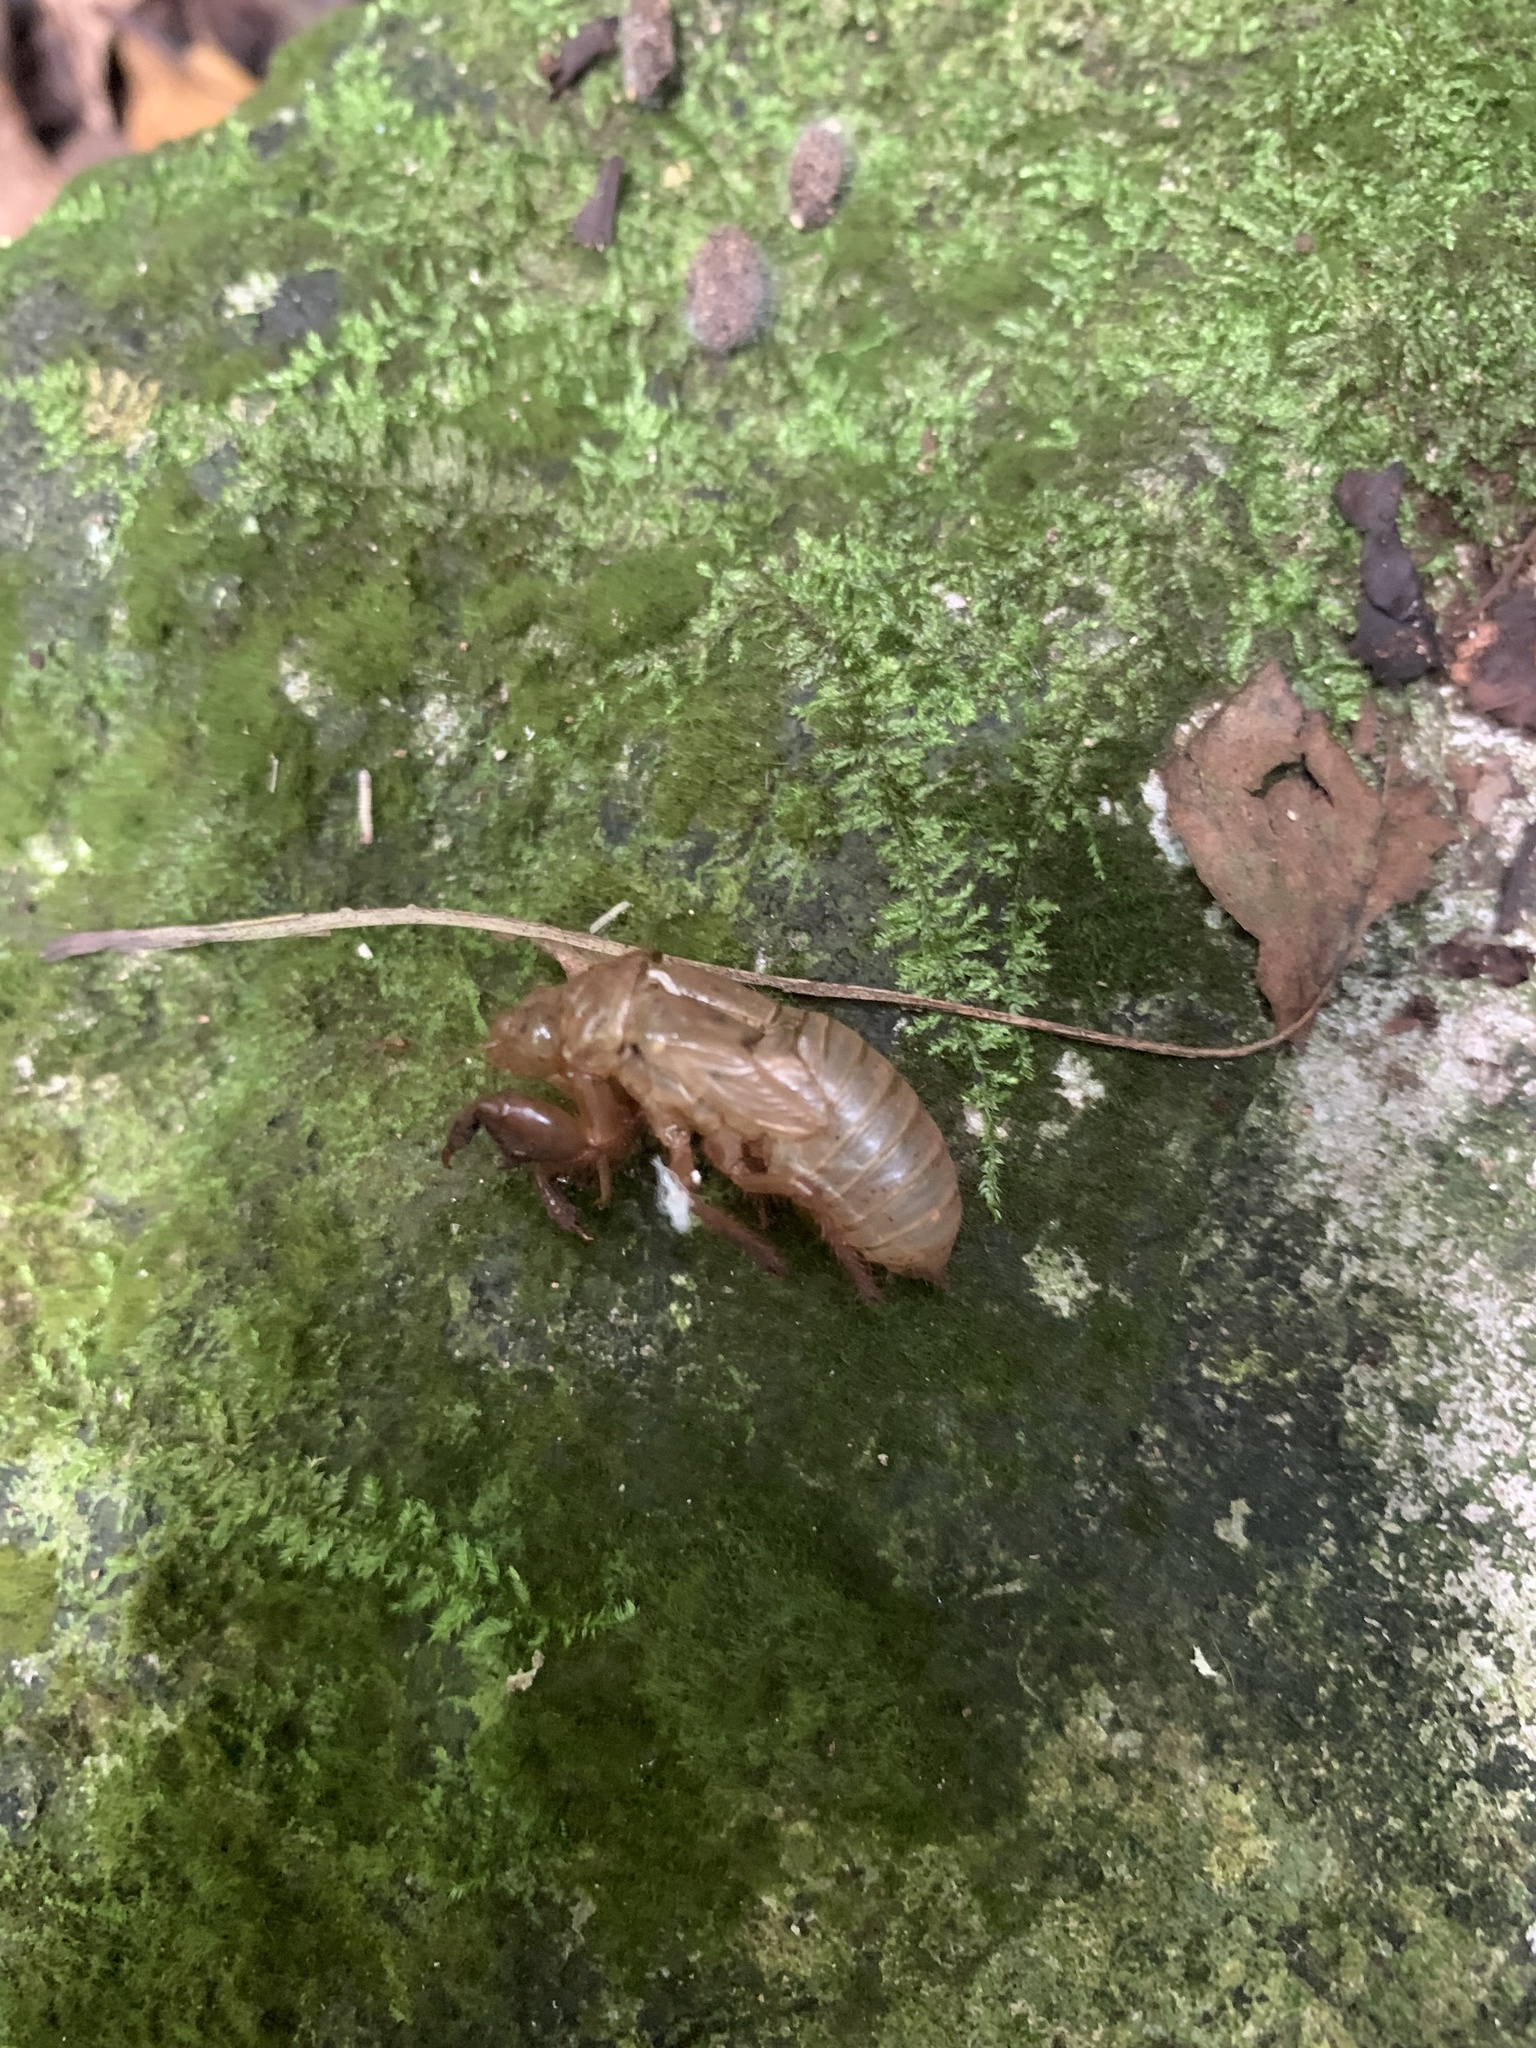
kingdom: Animalia
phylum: Arthropoda
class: Insecta
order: Hemiptera
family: Cicadidae
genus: Meimuna
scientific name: Meimuna boninensis
